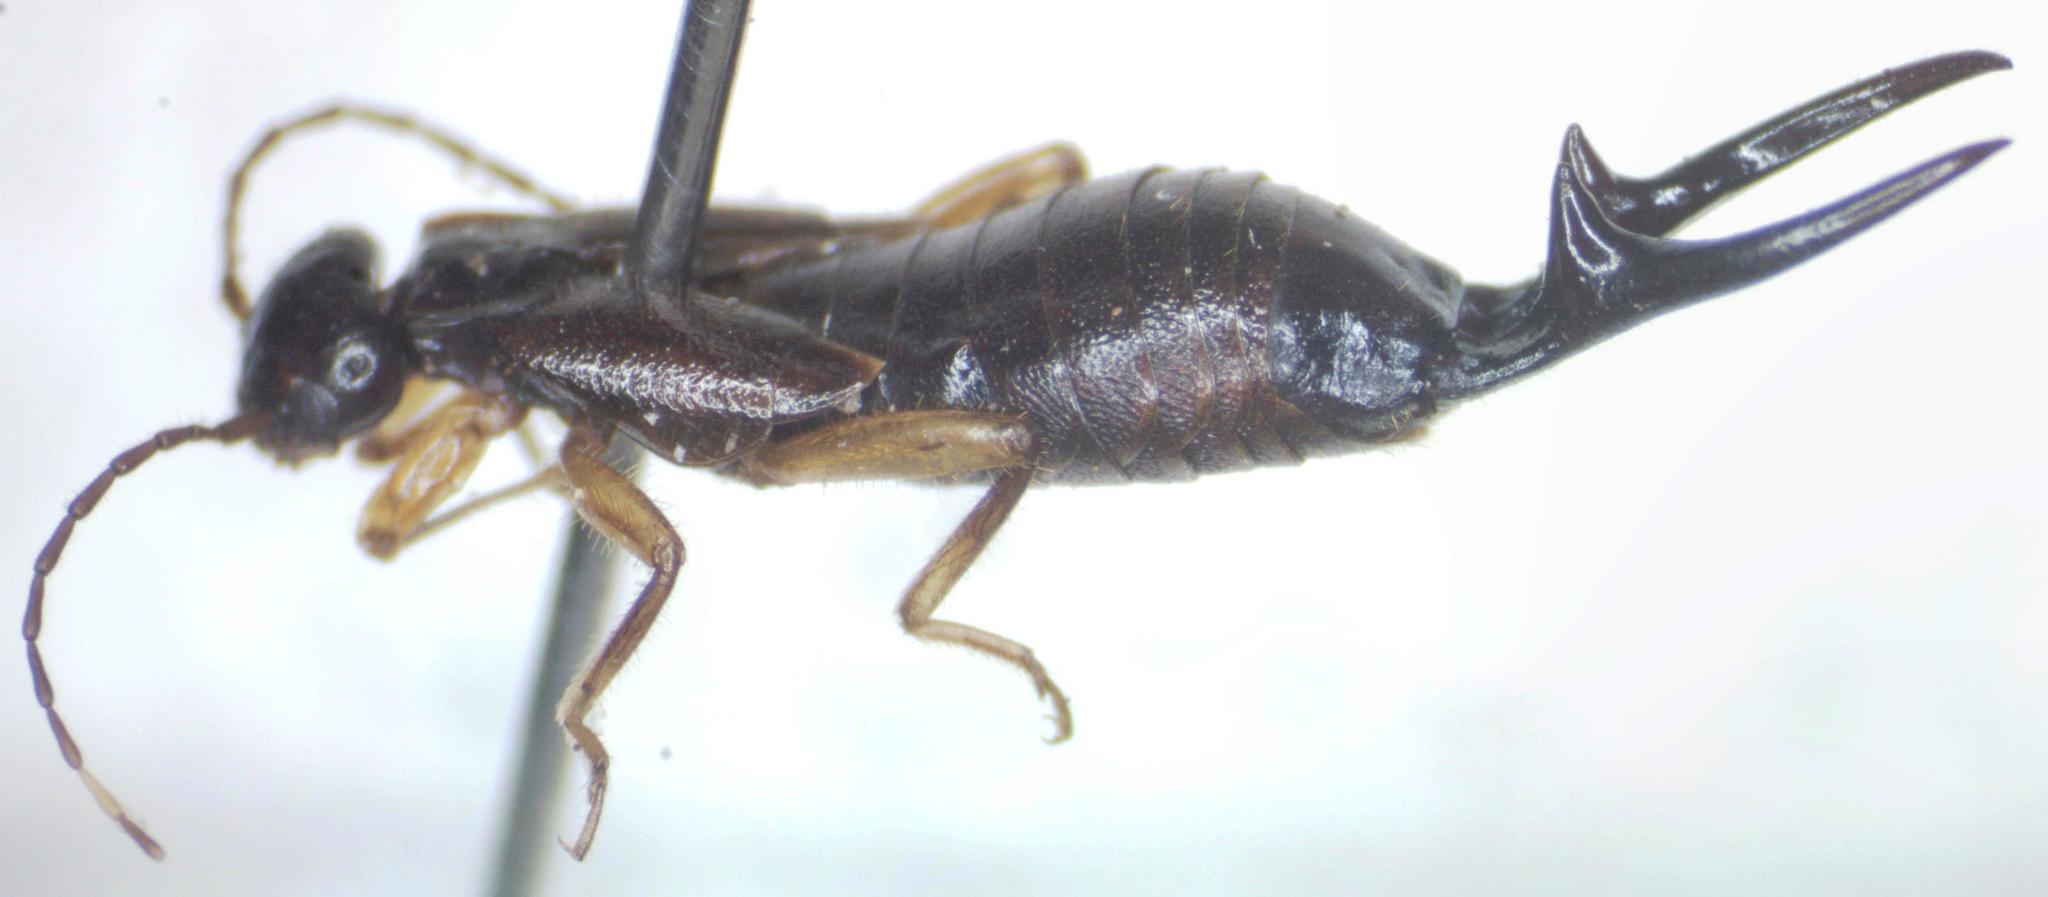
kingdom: Animalia
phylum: Arthropoda
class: Insecta
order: Dermaptera
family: Forficulidae
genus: Skalistes
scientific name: Skalistes inopinata
